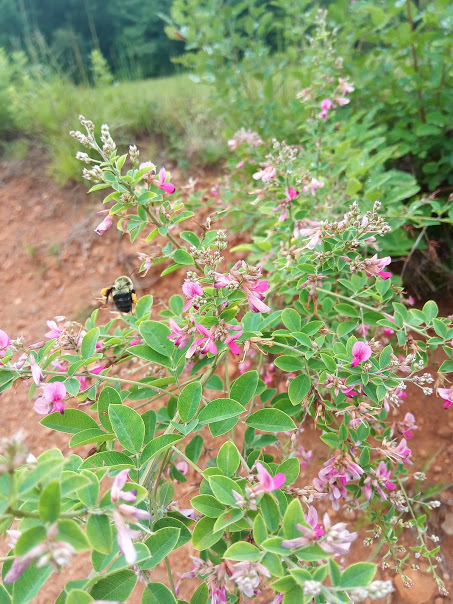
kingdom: Animalia
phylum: Arthropoda
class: Insecta
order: Hymenoptera
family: Apidae
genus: Bombus
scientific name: Bombus impatiens
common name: Common eastern bumble bee
